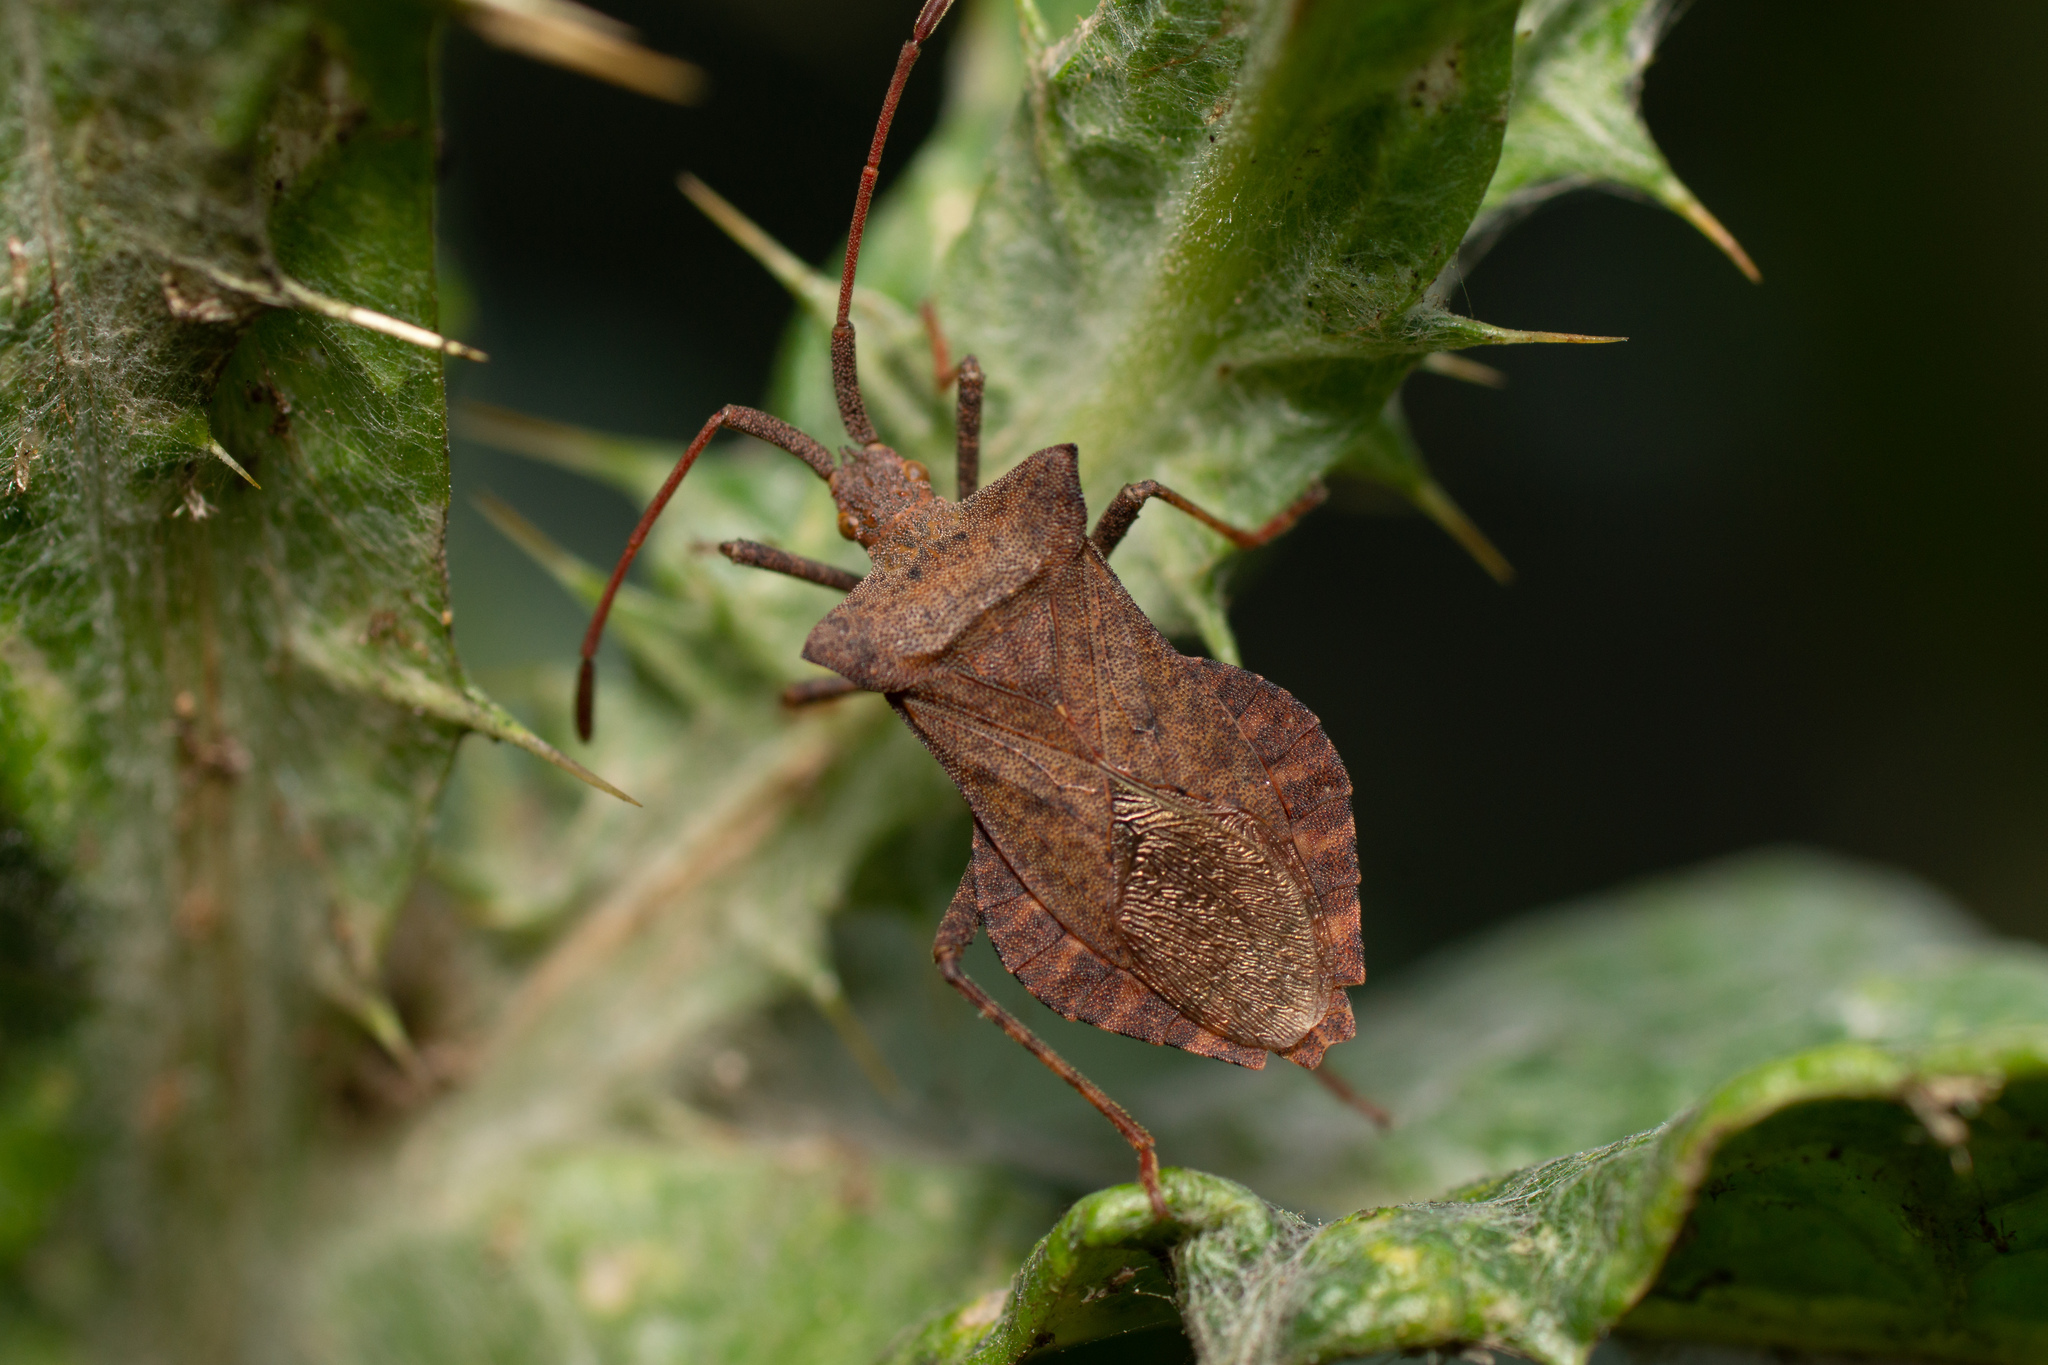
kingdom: Animalia
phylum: Arthropoda
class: Insecta
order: Hemiptera
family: Coreidae
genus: Coreus
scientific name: Coreus marginatus
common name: Dock bug
